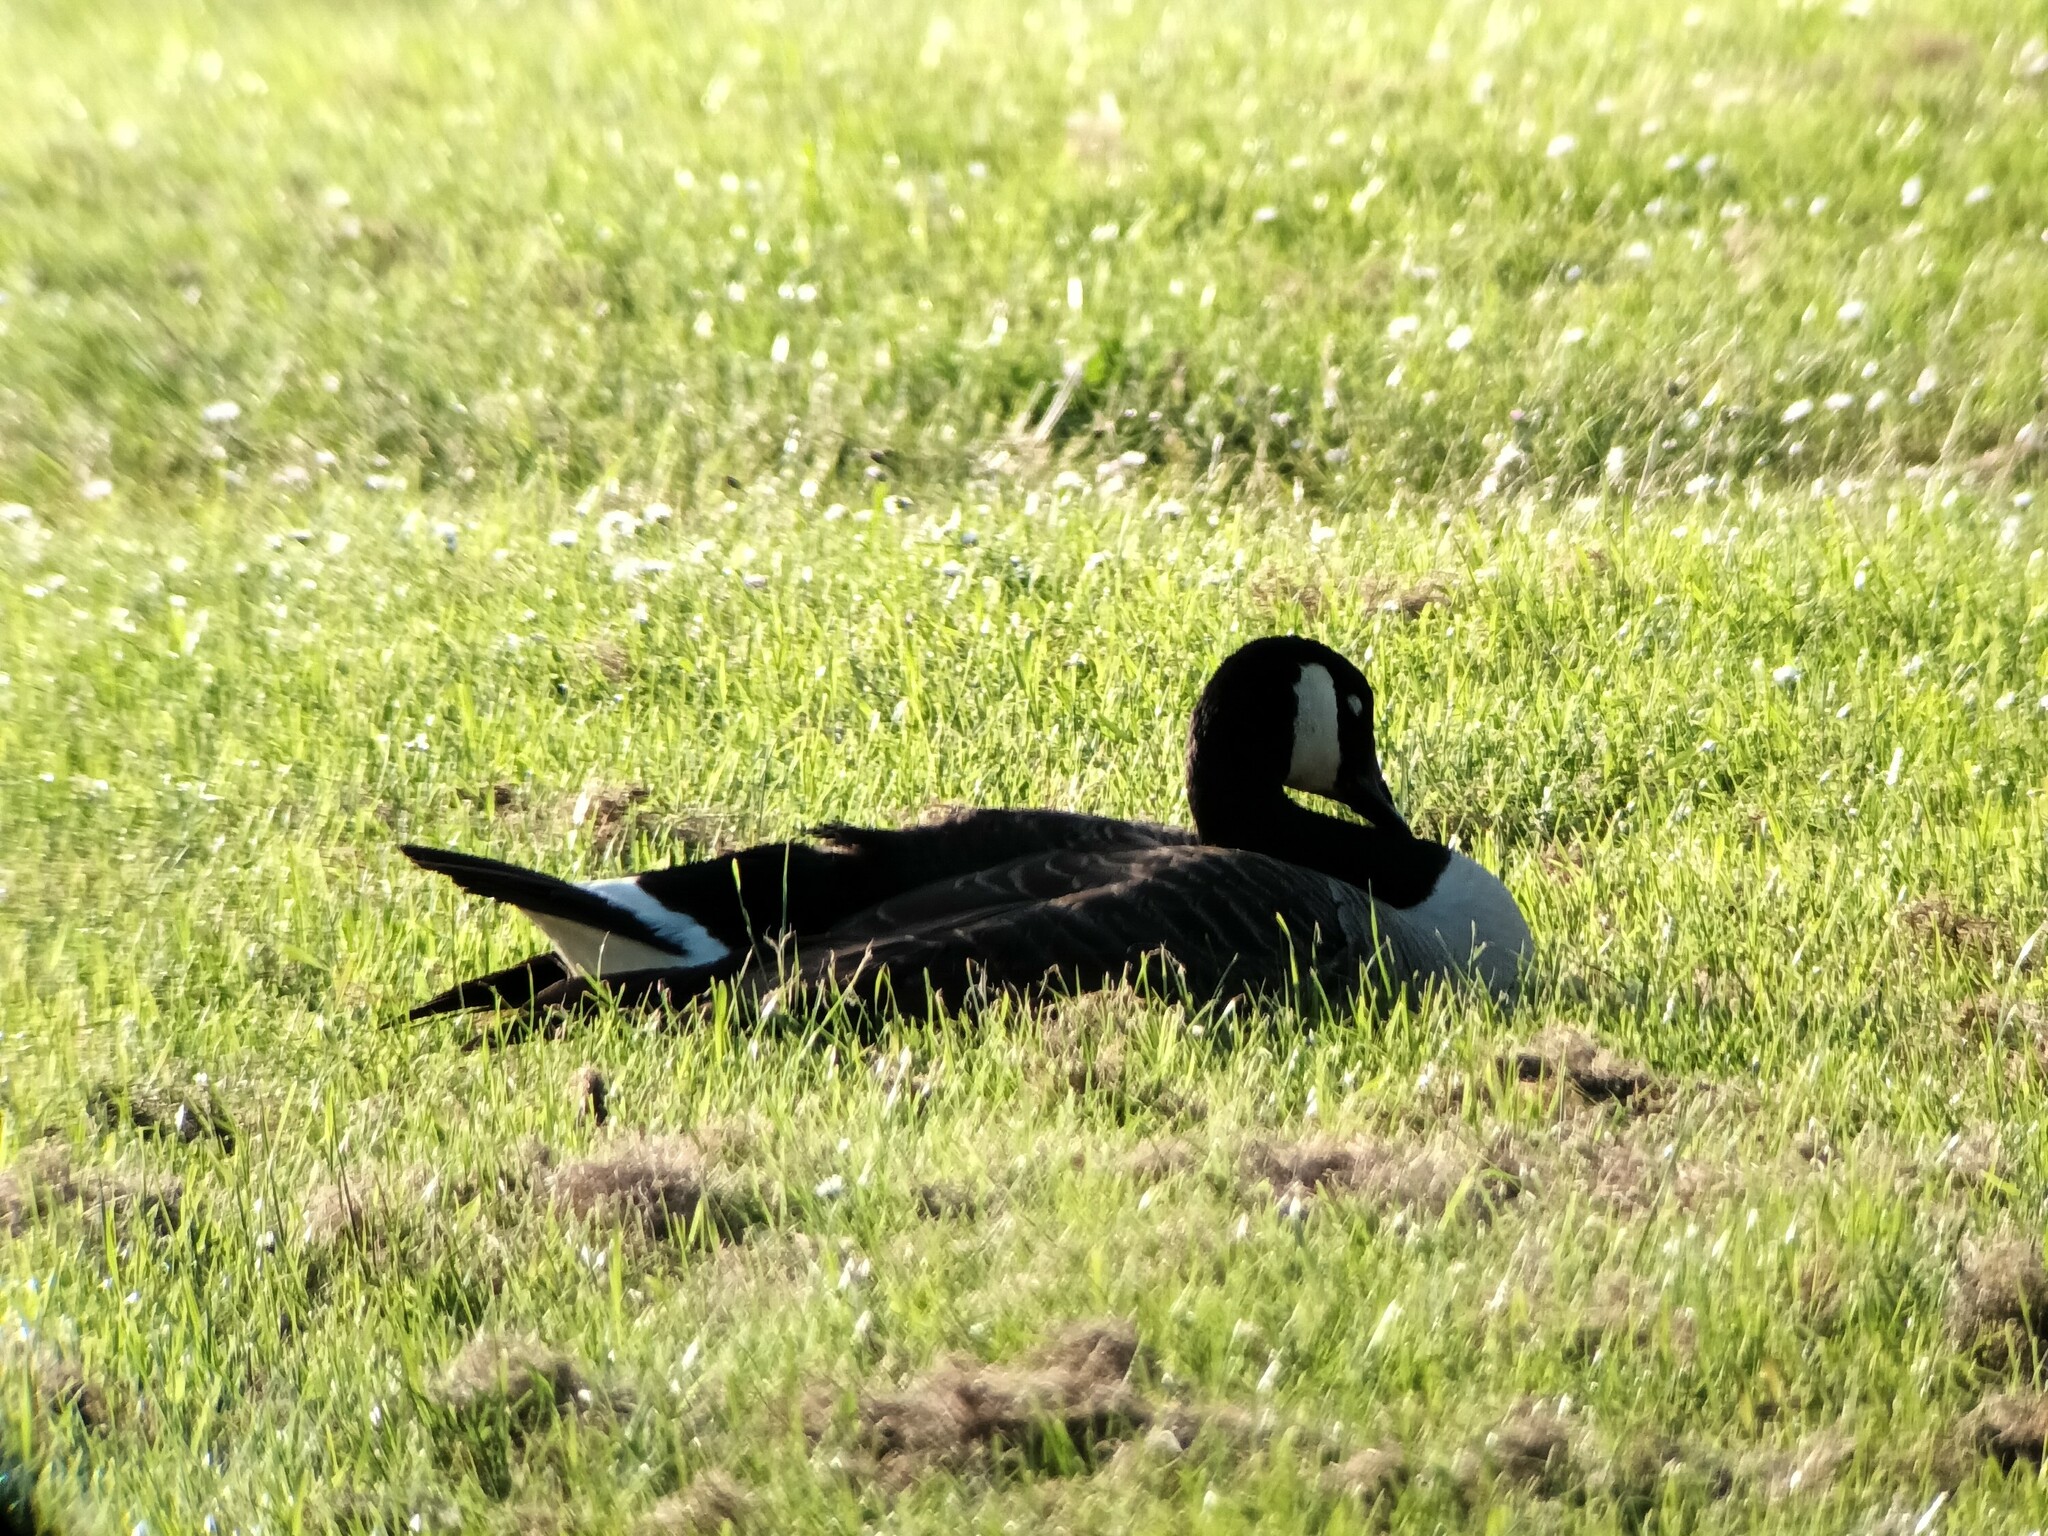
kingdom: Animalia
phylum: Chordata
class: Aves
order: Anseriformes
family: Anatidae
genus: Branta
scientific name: Branta canadensis
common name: Canada goose
